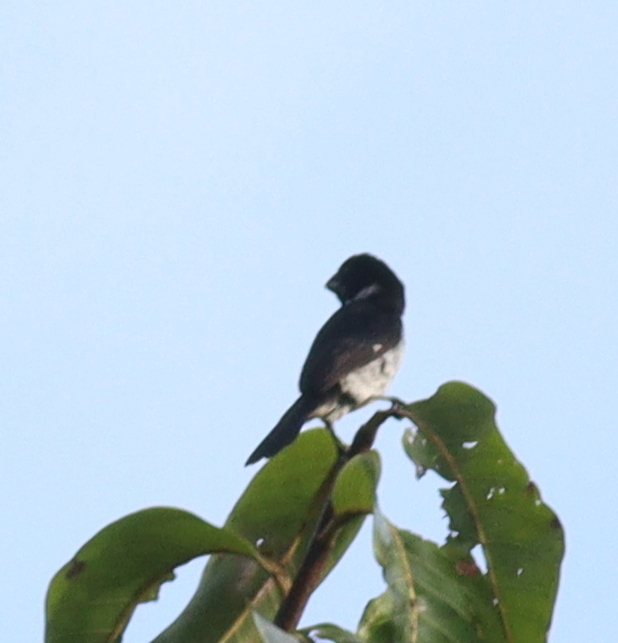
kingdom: Animalia
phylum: Chordata
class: Aves
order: Passeriformes
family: Thraupidae
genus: Sporophila
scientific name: Sporophila corvina
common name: Variable seedeater
